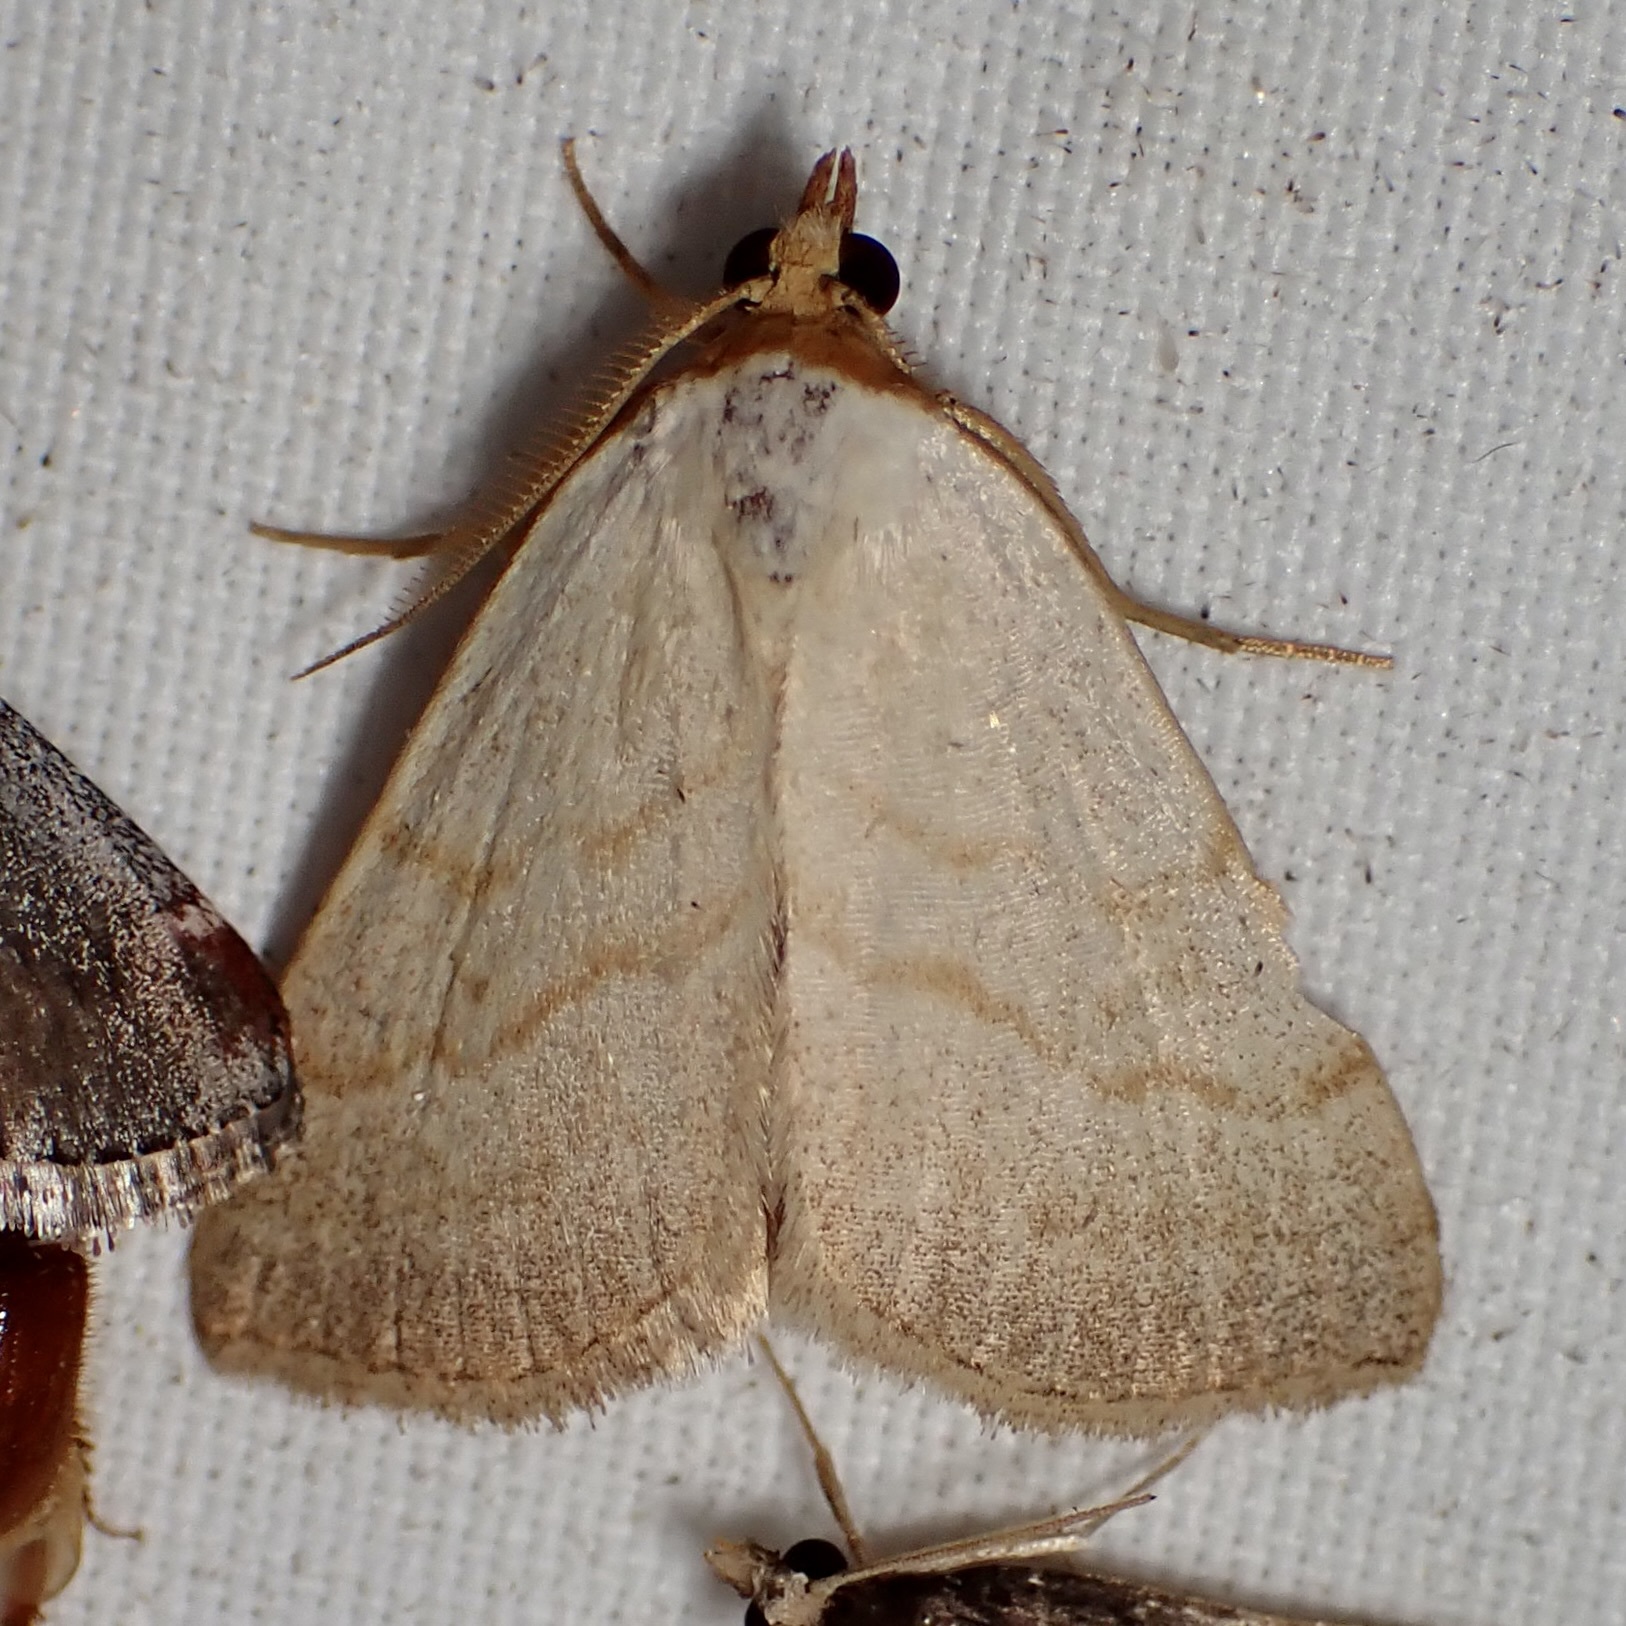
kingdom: Animalia
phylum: Arthropoda
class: Insecta
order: Lepidoptera
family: Erebidae
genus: Oxycilla
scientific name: Oxycilla tripla
